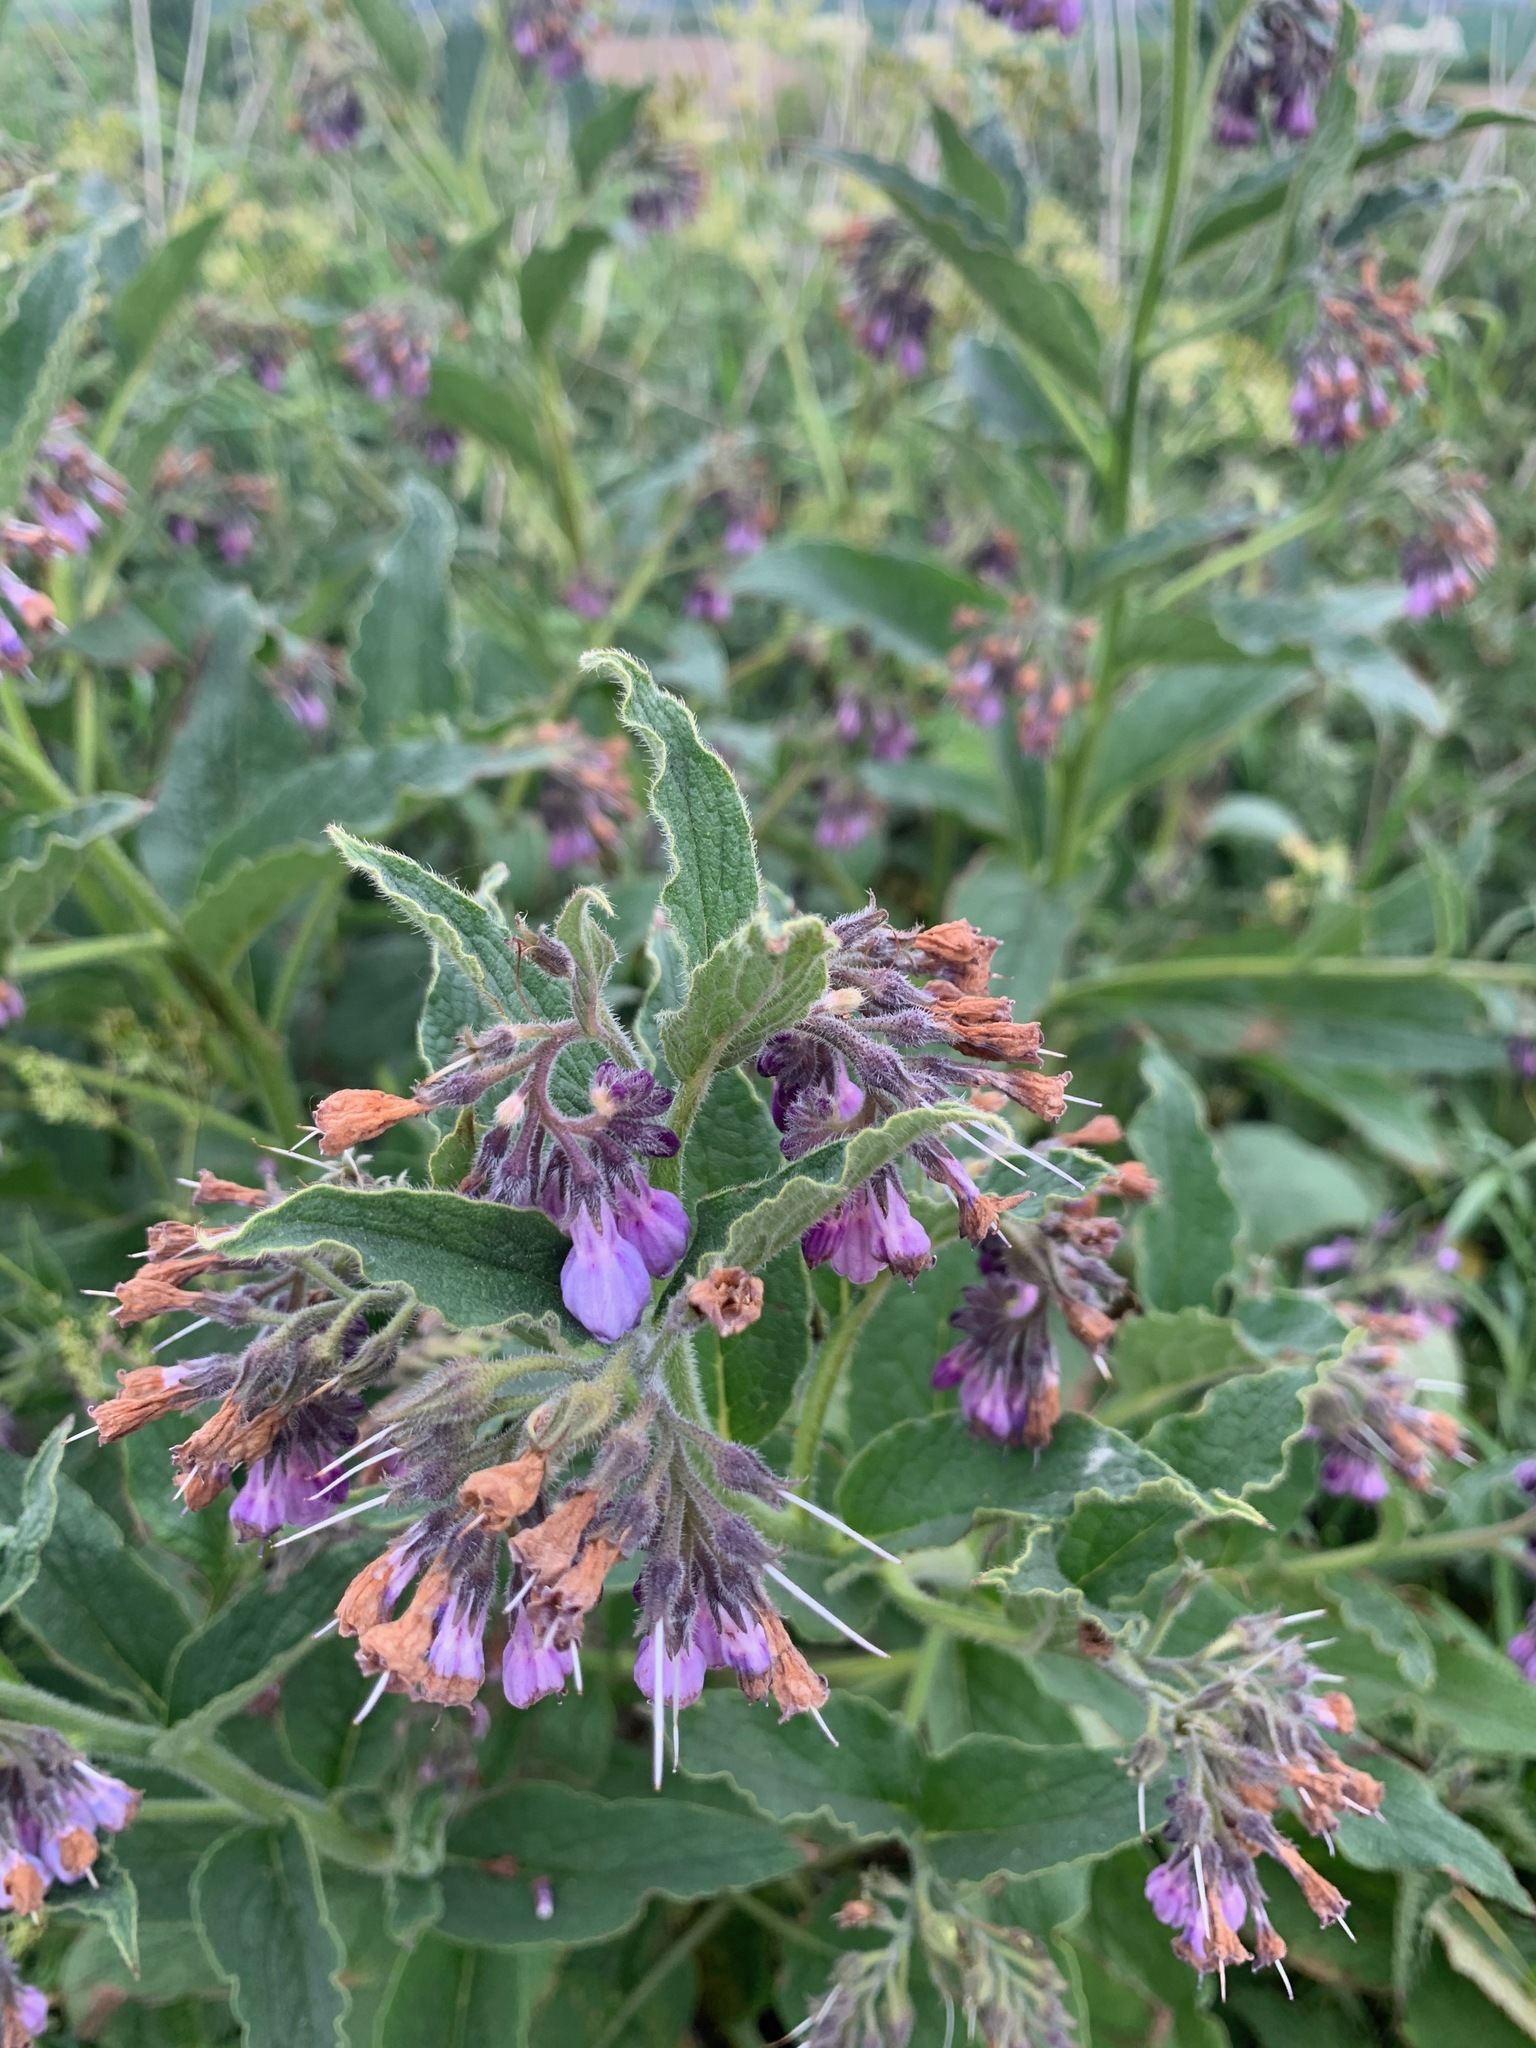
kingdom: Plantae
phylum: Tracheophyta
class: Magnoliopsida
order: Boraginales
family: Boraginaceae
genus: Symphytum
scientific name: Symphytum officinale
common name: Common comfrey
